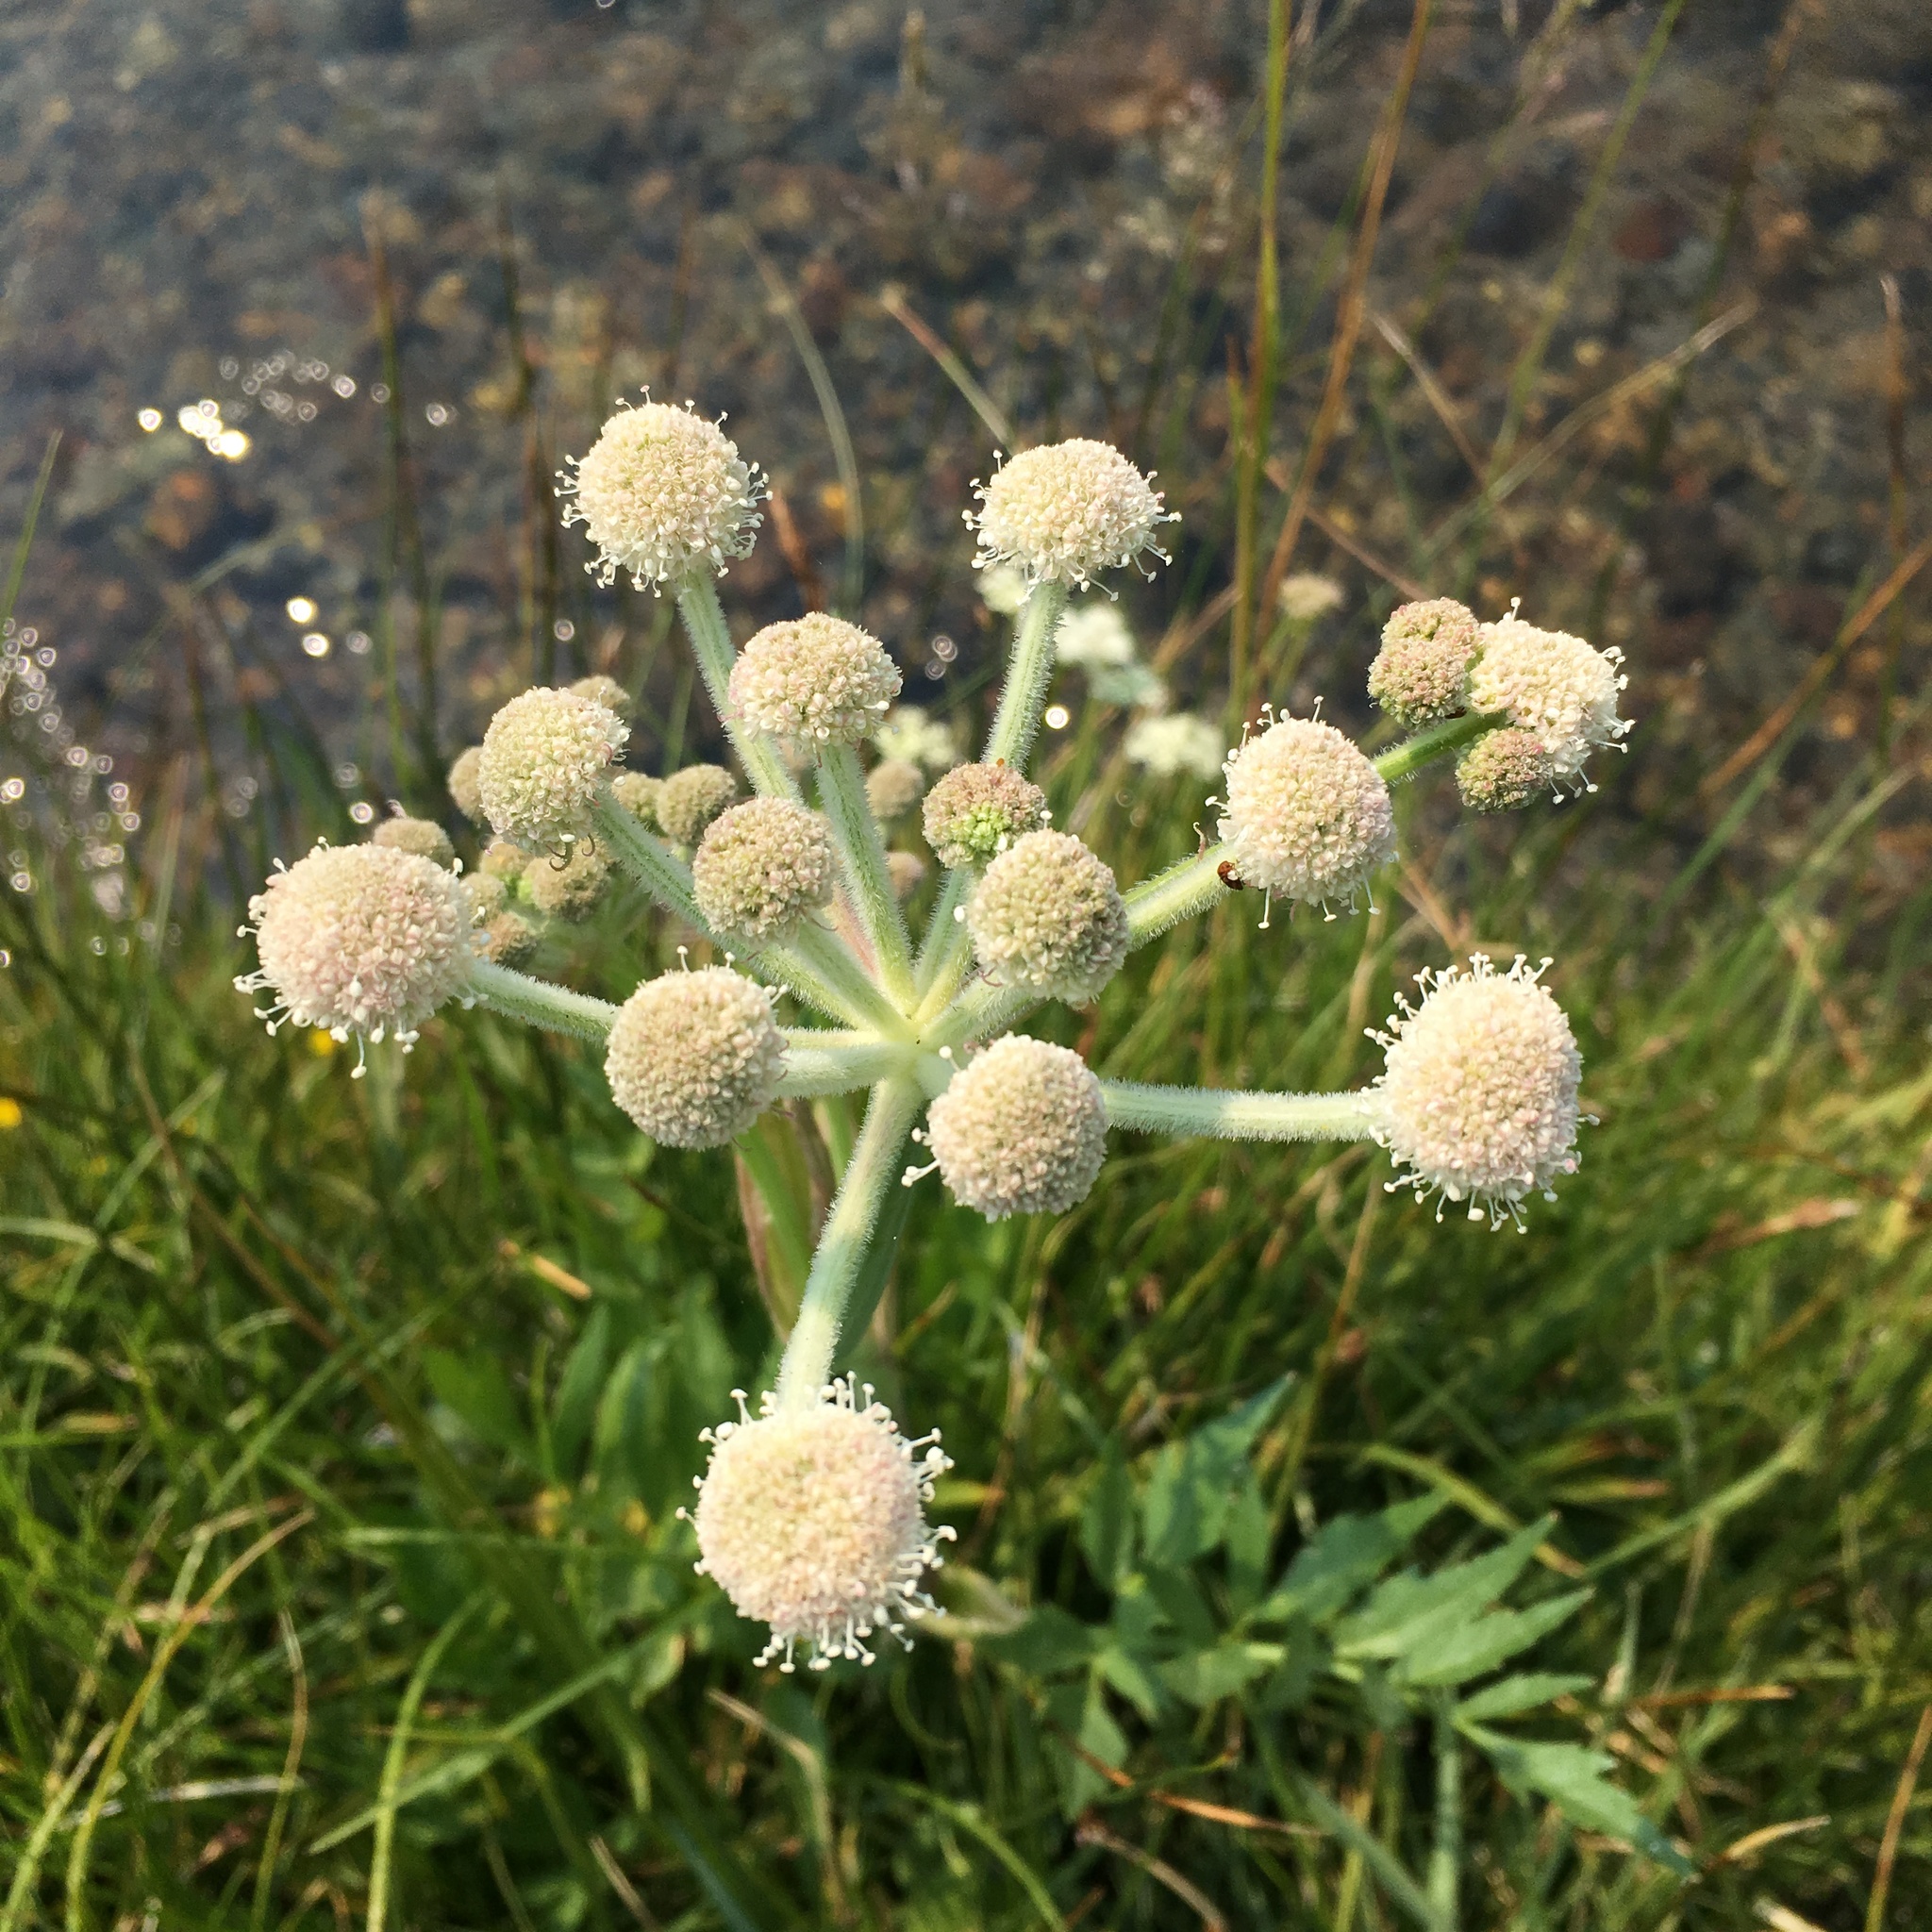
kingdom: Plantae
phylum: Tracheophyta
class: Magnoliopsida
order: Apiales
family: Apiaceae
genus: Angelica
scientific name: Angelica capitellata
